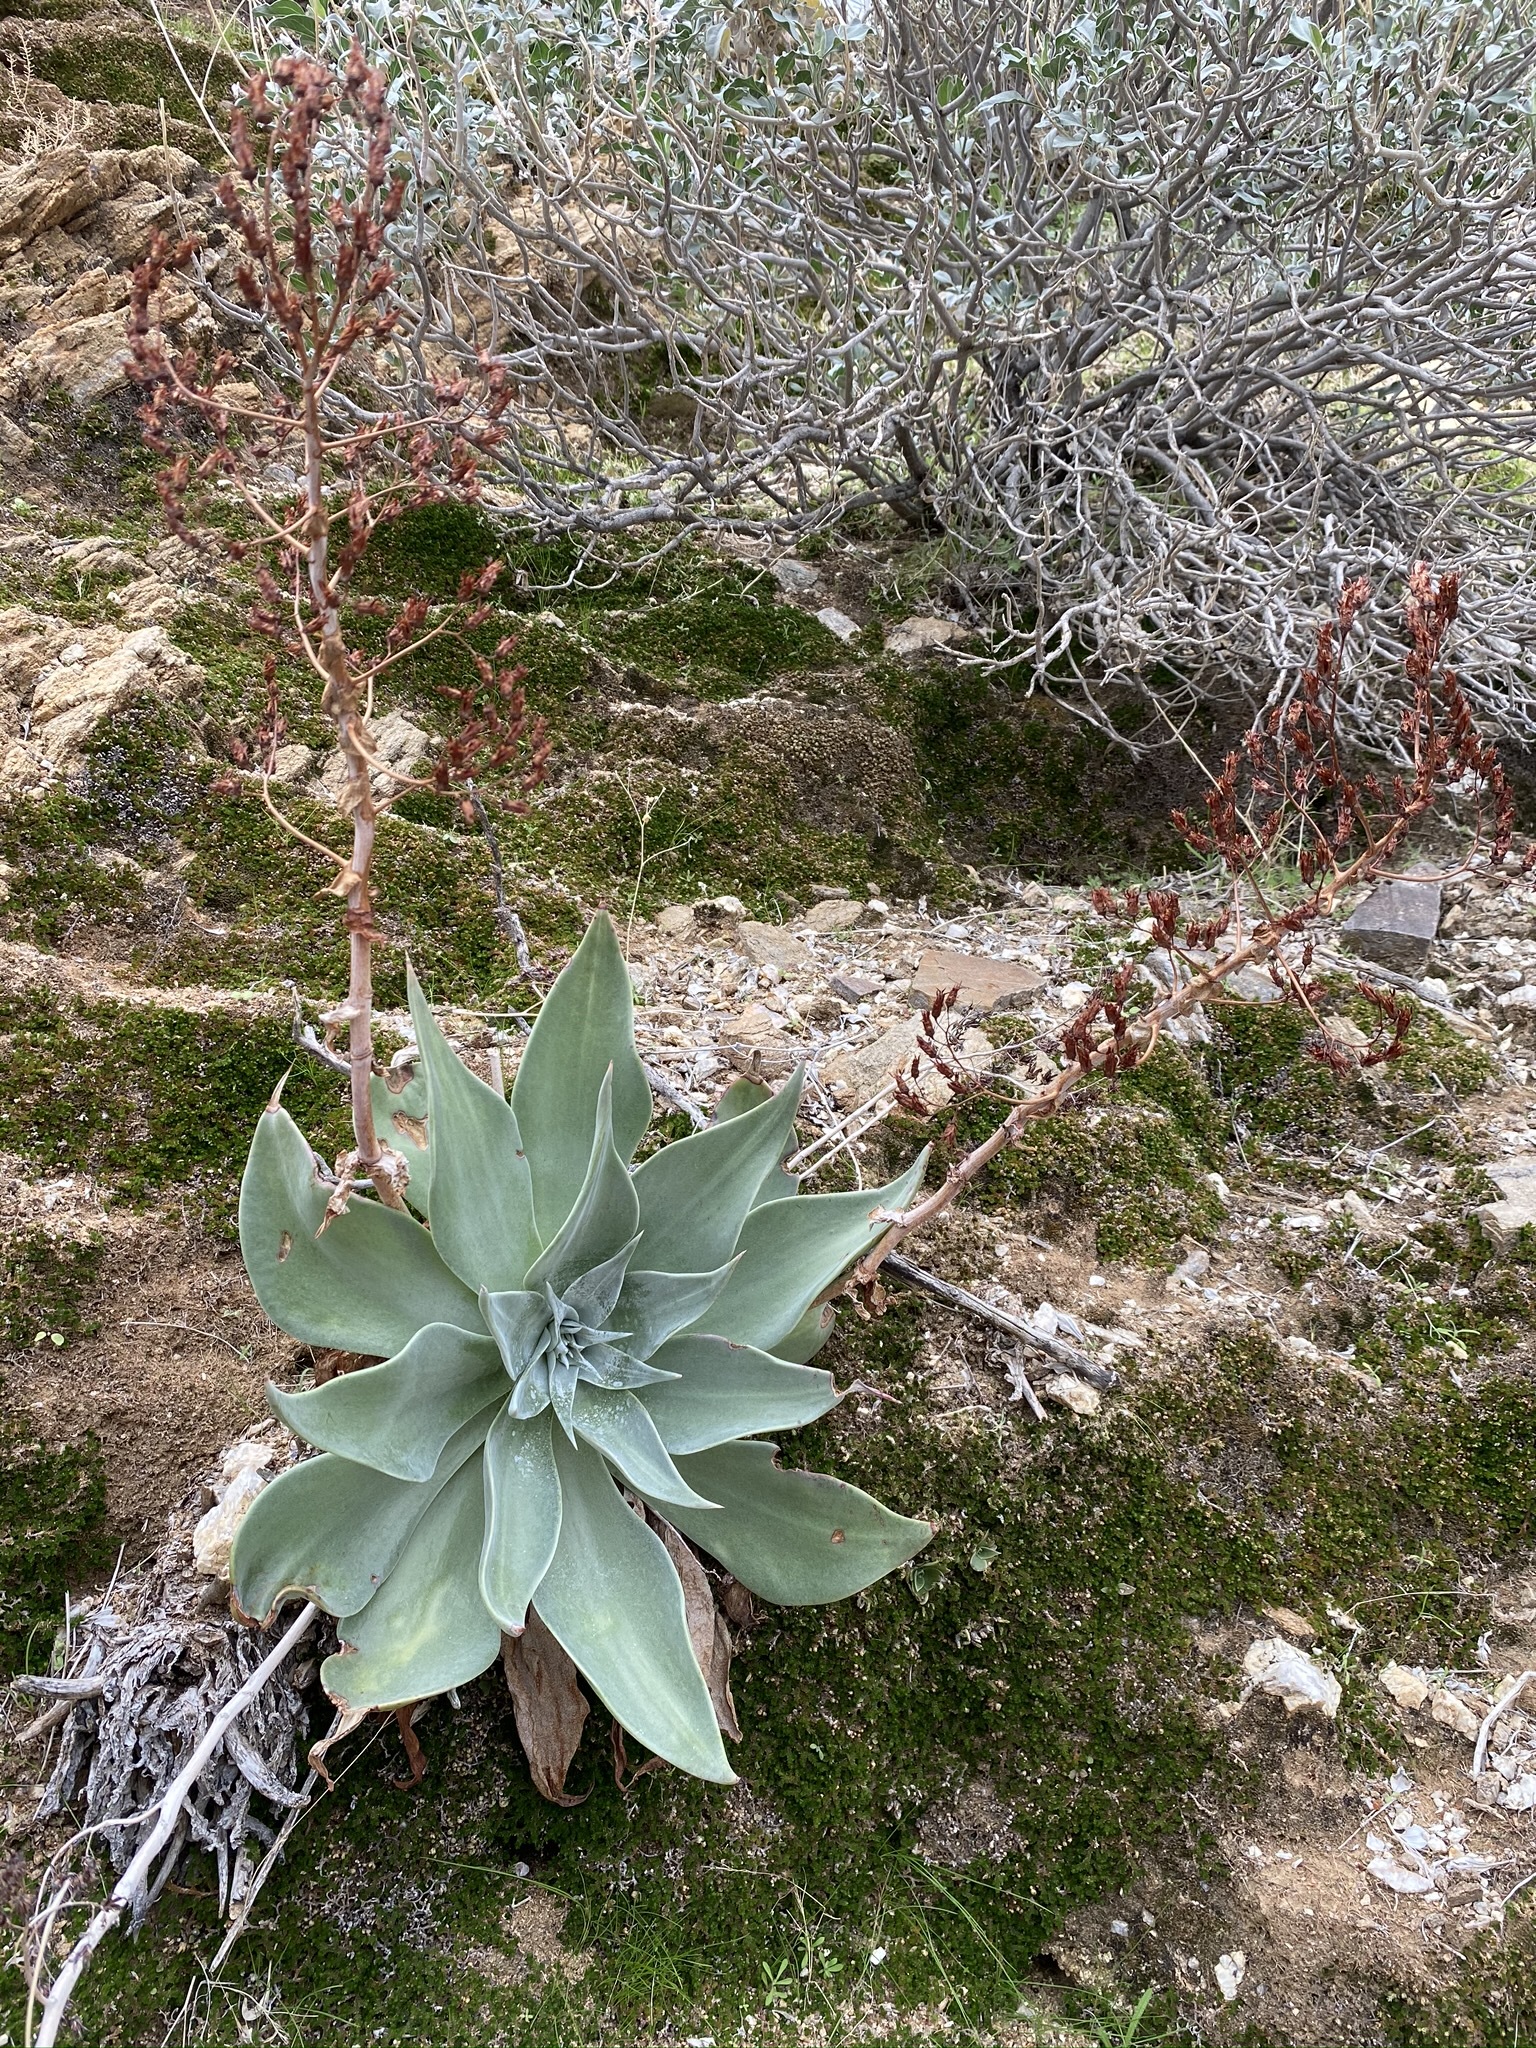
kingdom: Plantae
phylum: Tracheophyta
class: Magnoliopsida
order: Saxifragales
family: Crassulaceae
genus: Dudleya
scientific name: Dudleya arizonica
